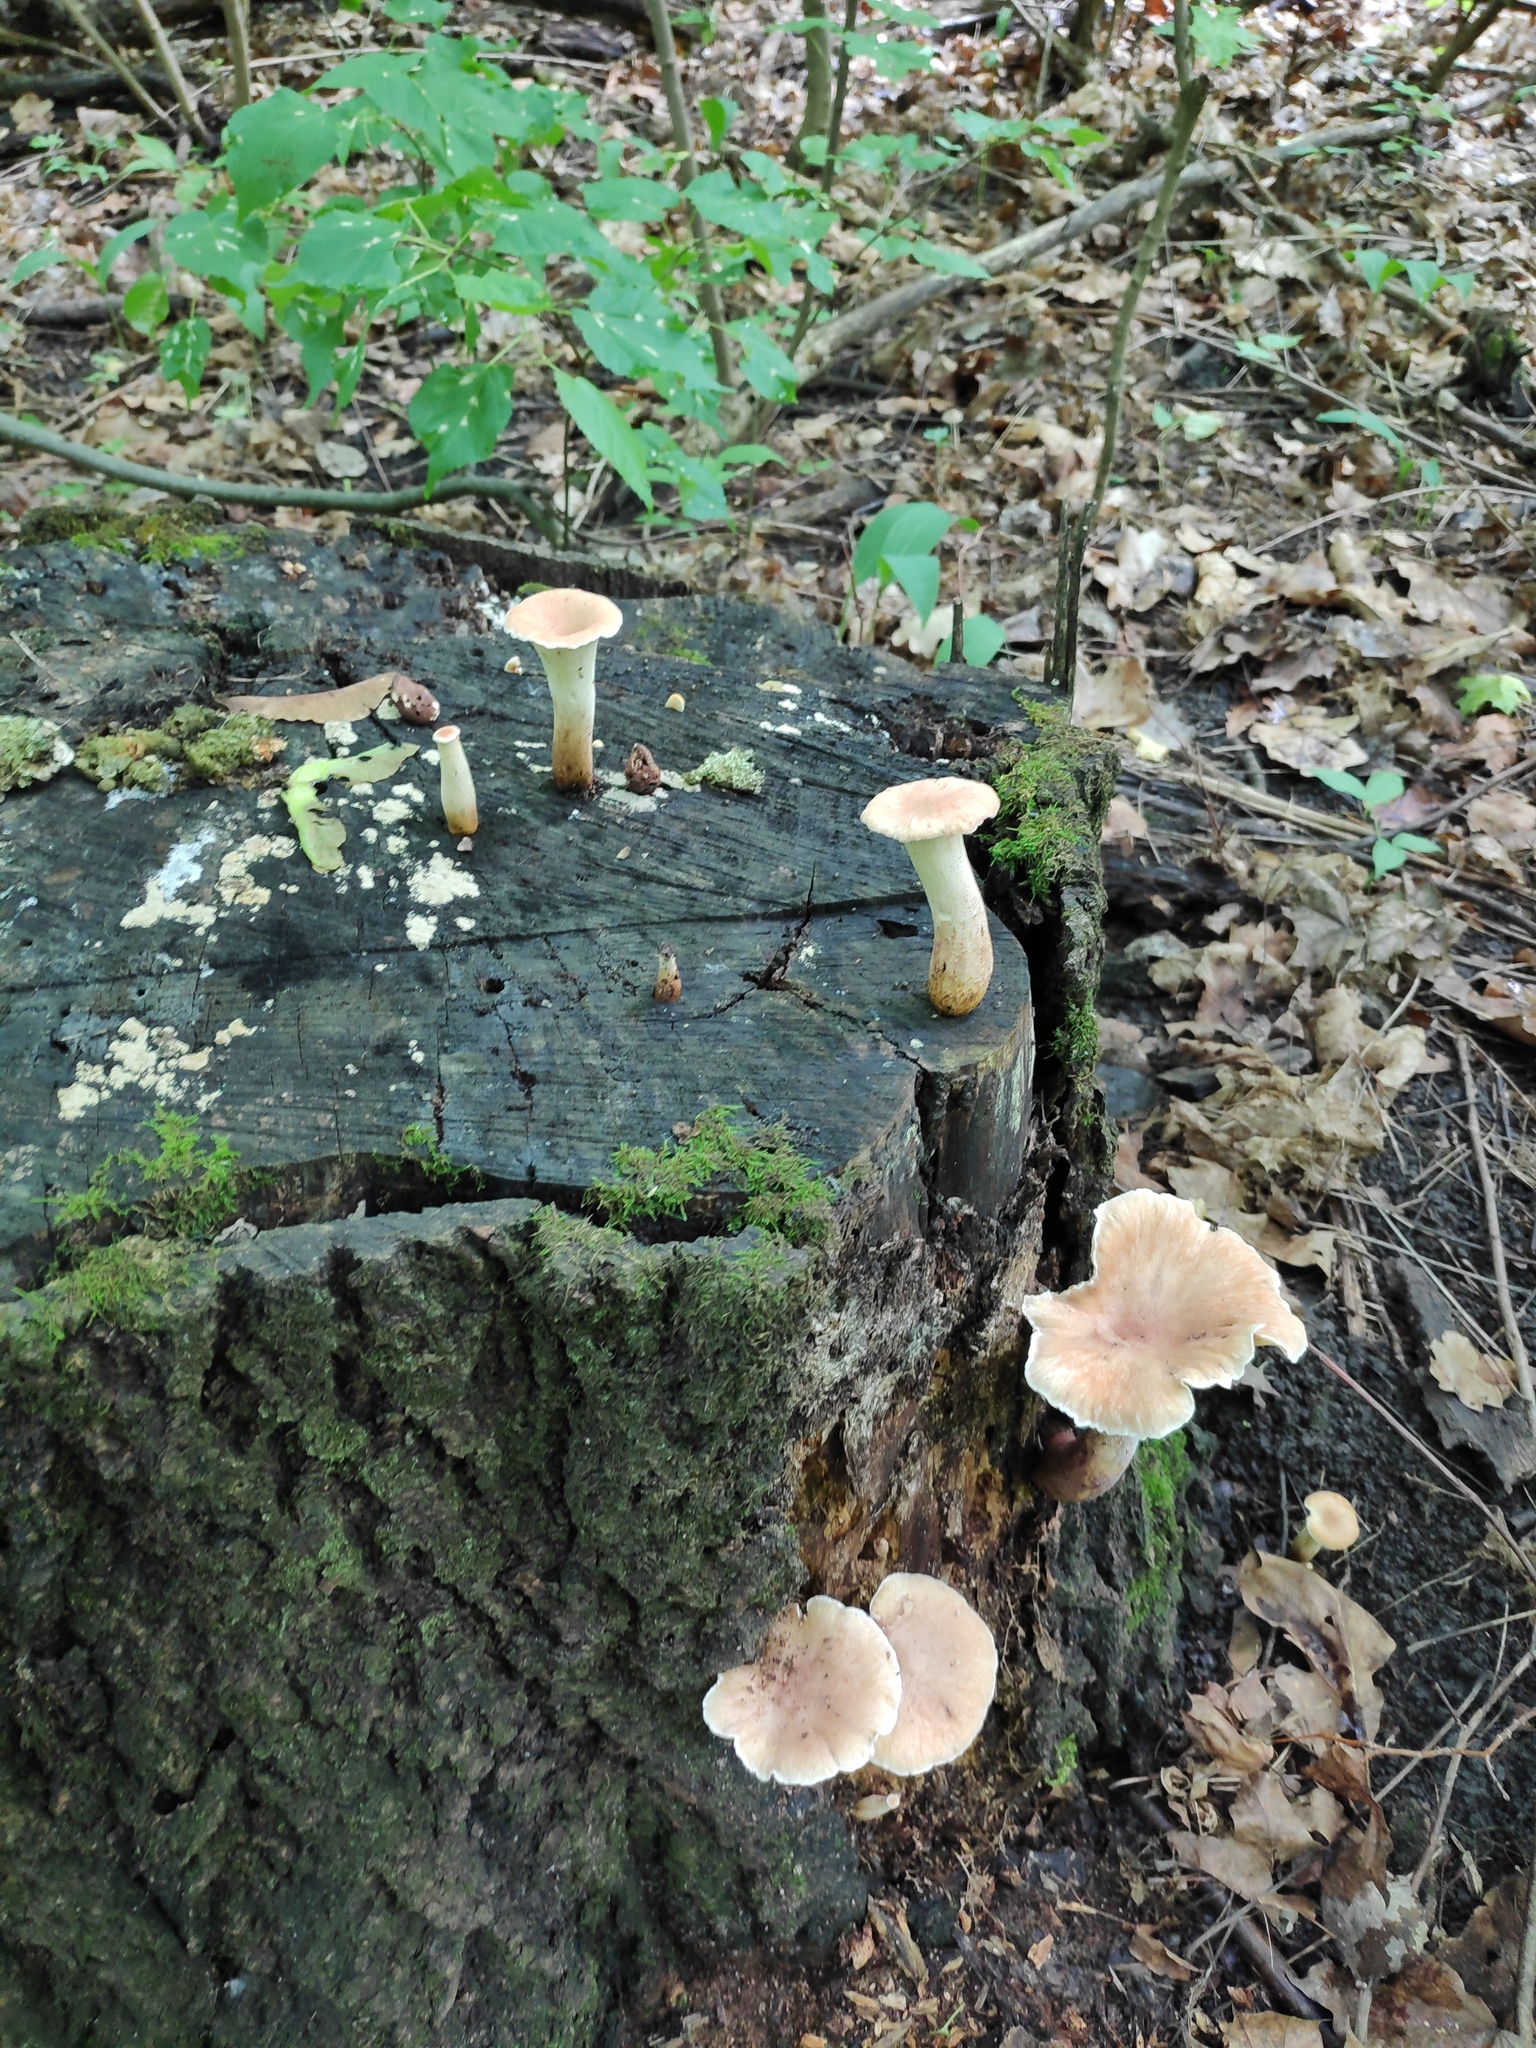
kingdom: Fungi
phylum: Basidiomycota
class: Agaricomycetes
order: Gloeophyllales
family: Gloeophyllaceae
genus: Neolentinus
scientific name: Neolentinus cyathiformis
